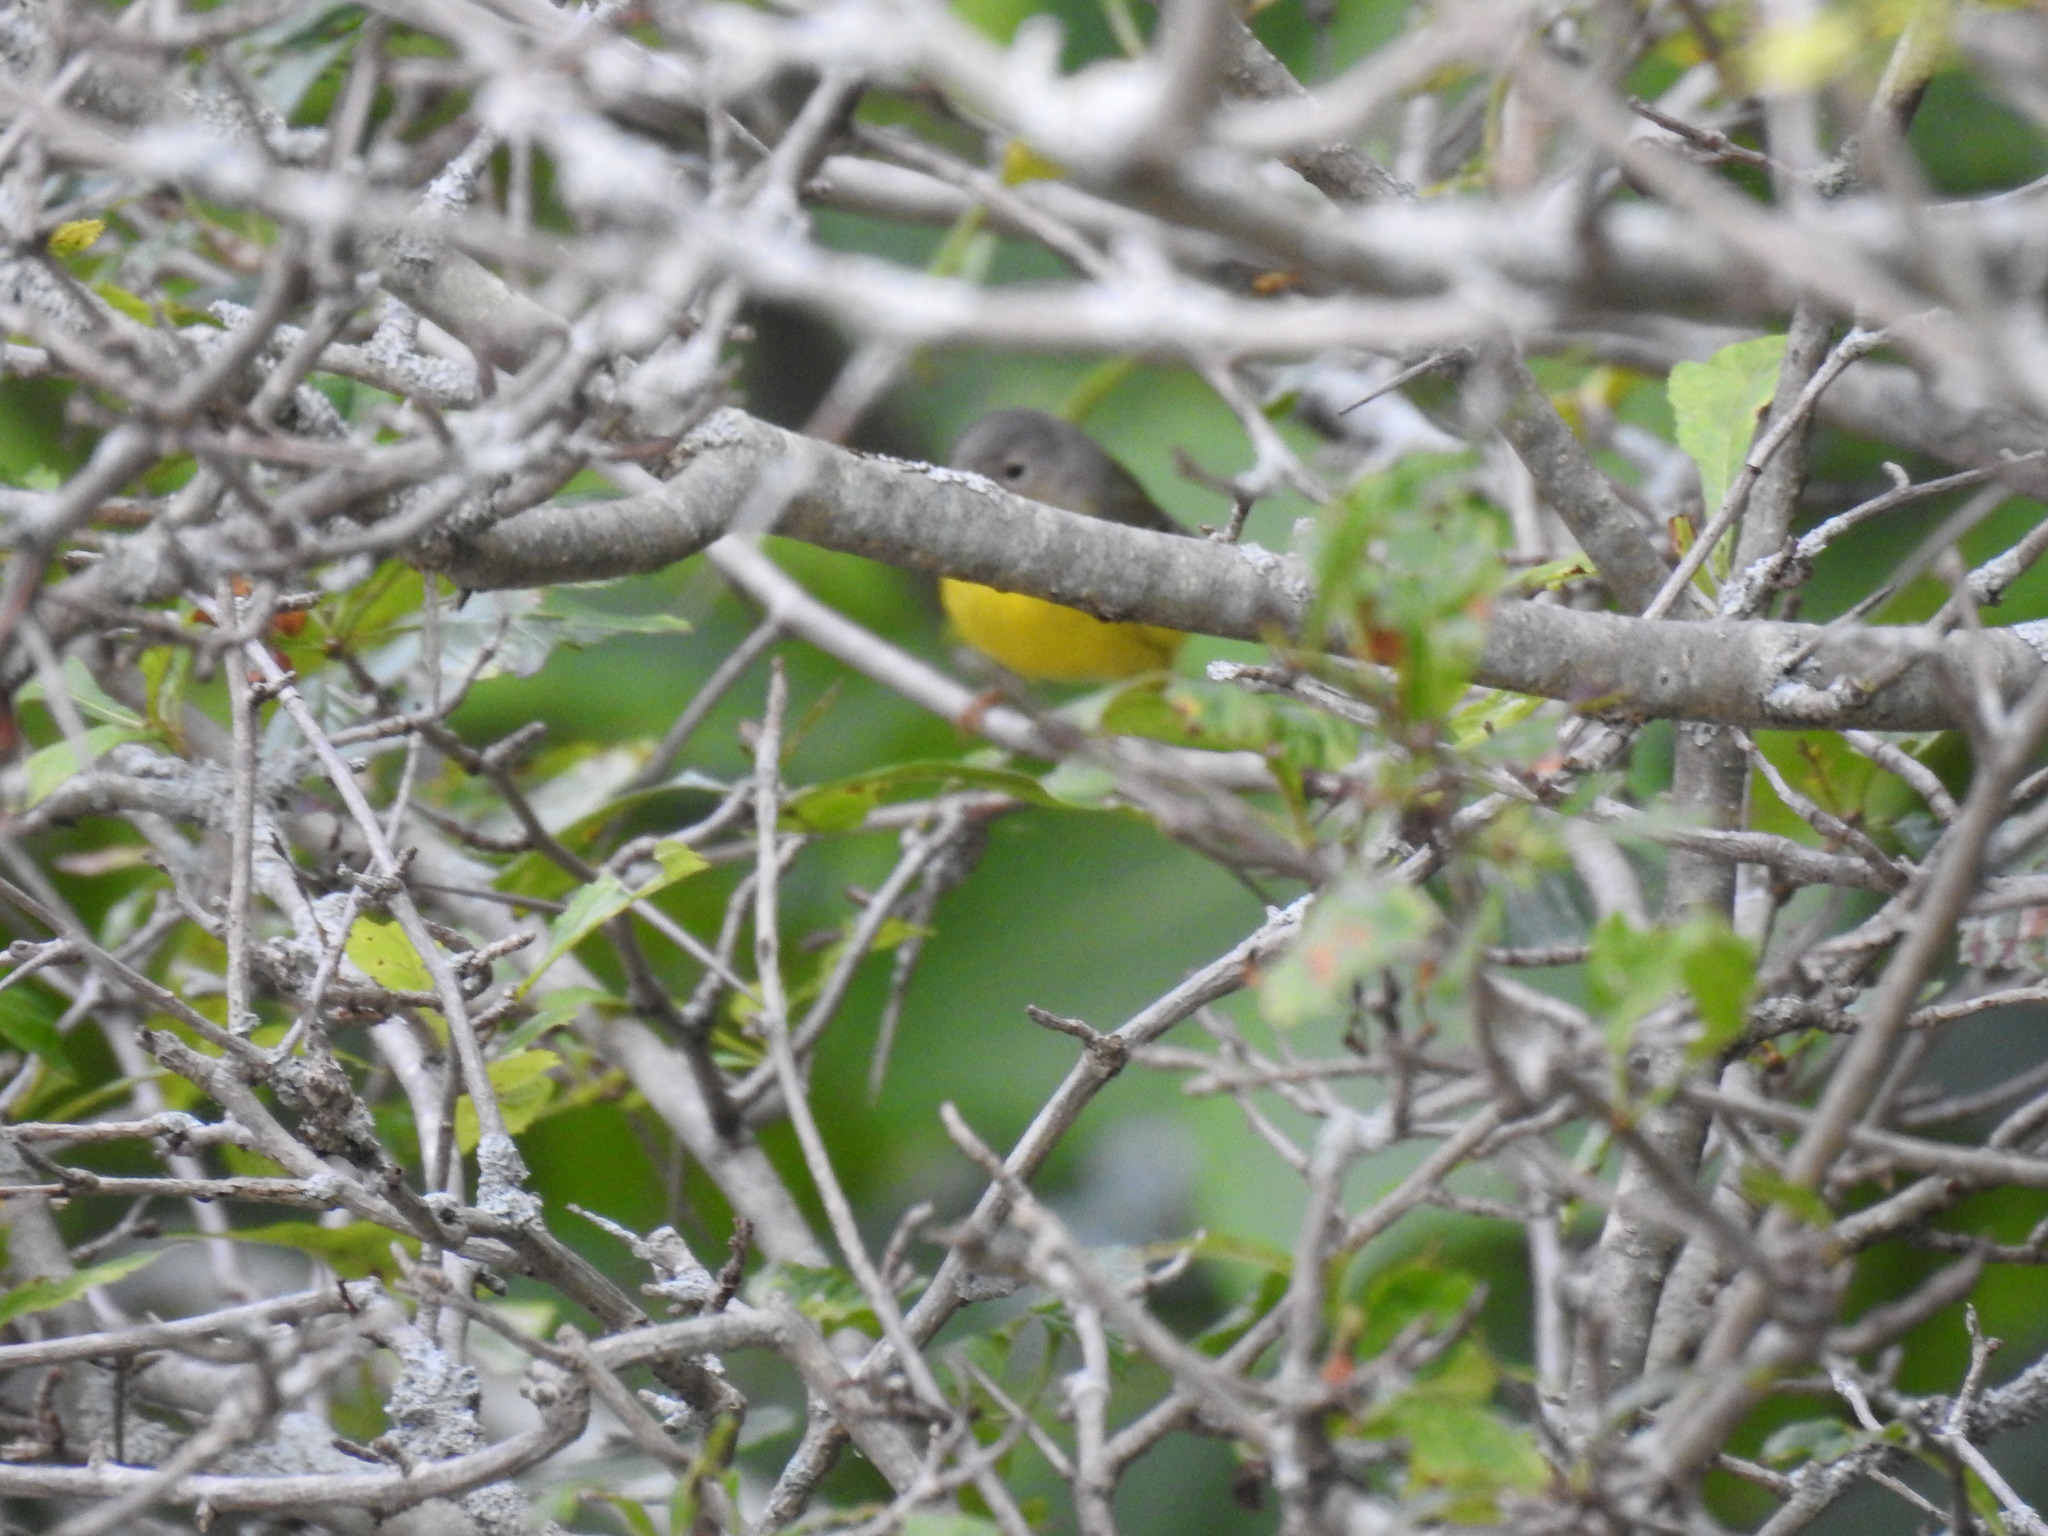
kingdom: Animalia
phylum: Chordata
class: Aves
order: Passeriformes
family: Parulidae
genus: Leiothlypis
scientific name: Leiothlypis ruficapilla
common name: Nashville warbler
